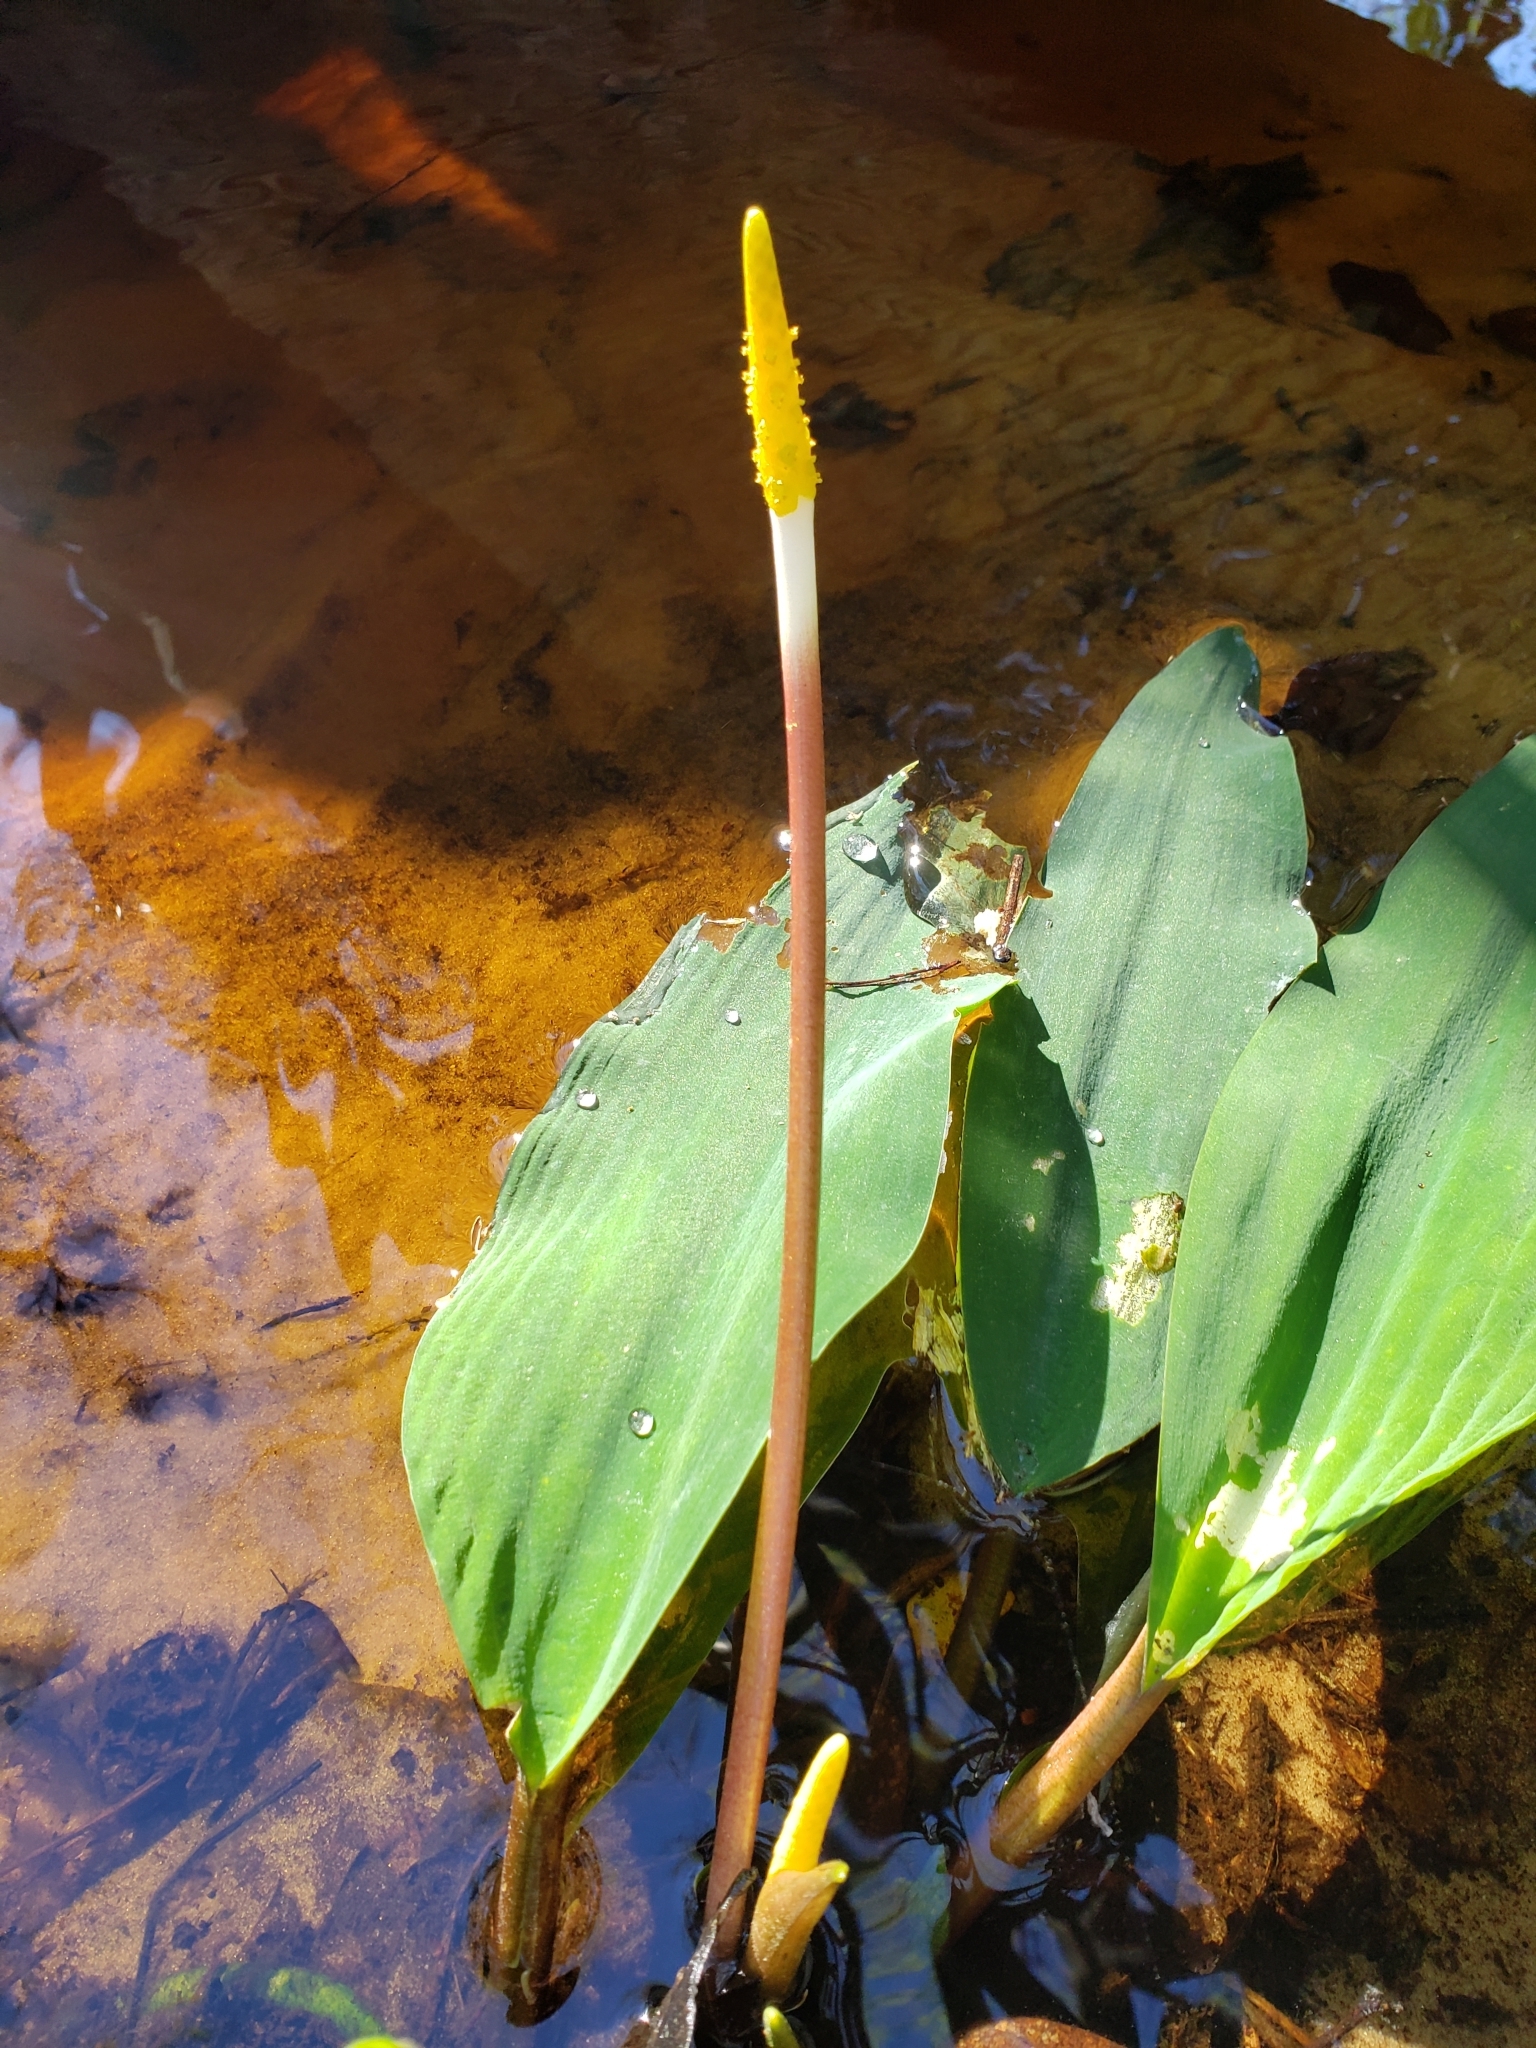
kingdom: Plantae
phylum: Tracheophyta
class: Liliopsida
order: Alismatales
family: Araceae
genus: Orontium
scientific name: Orontium aquaticum
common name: Golden-club
